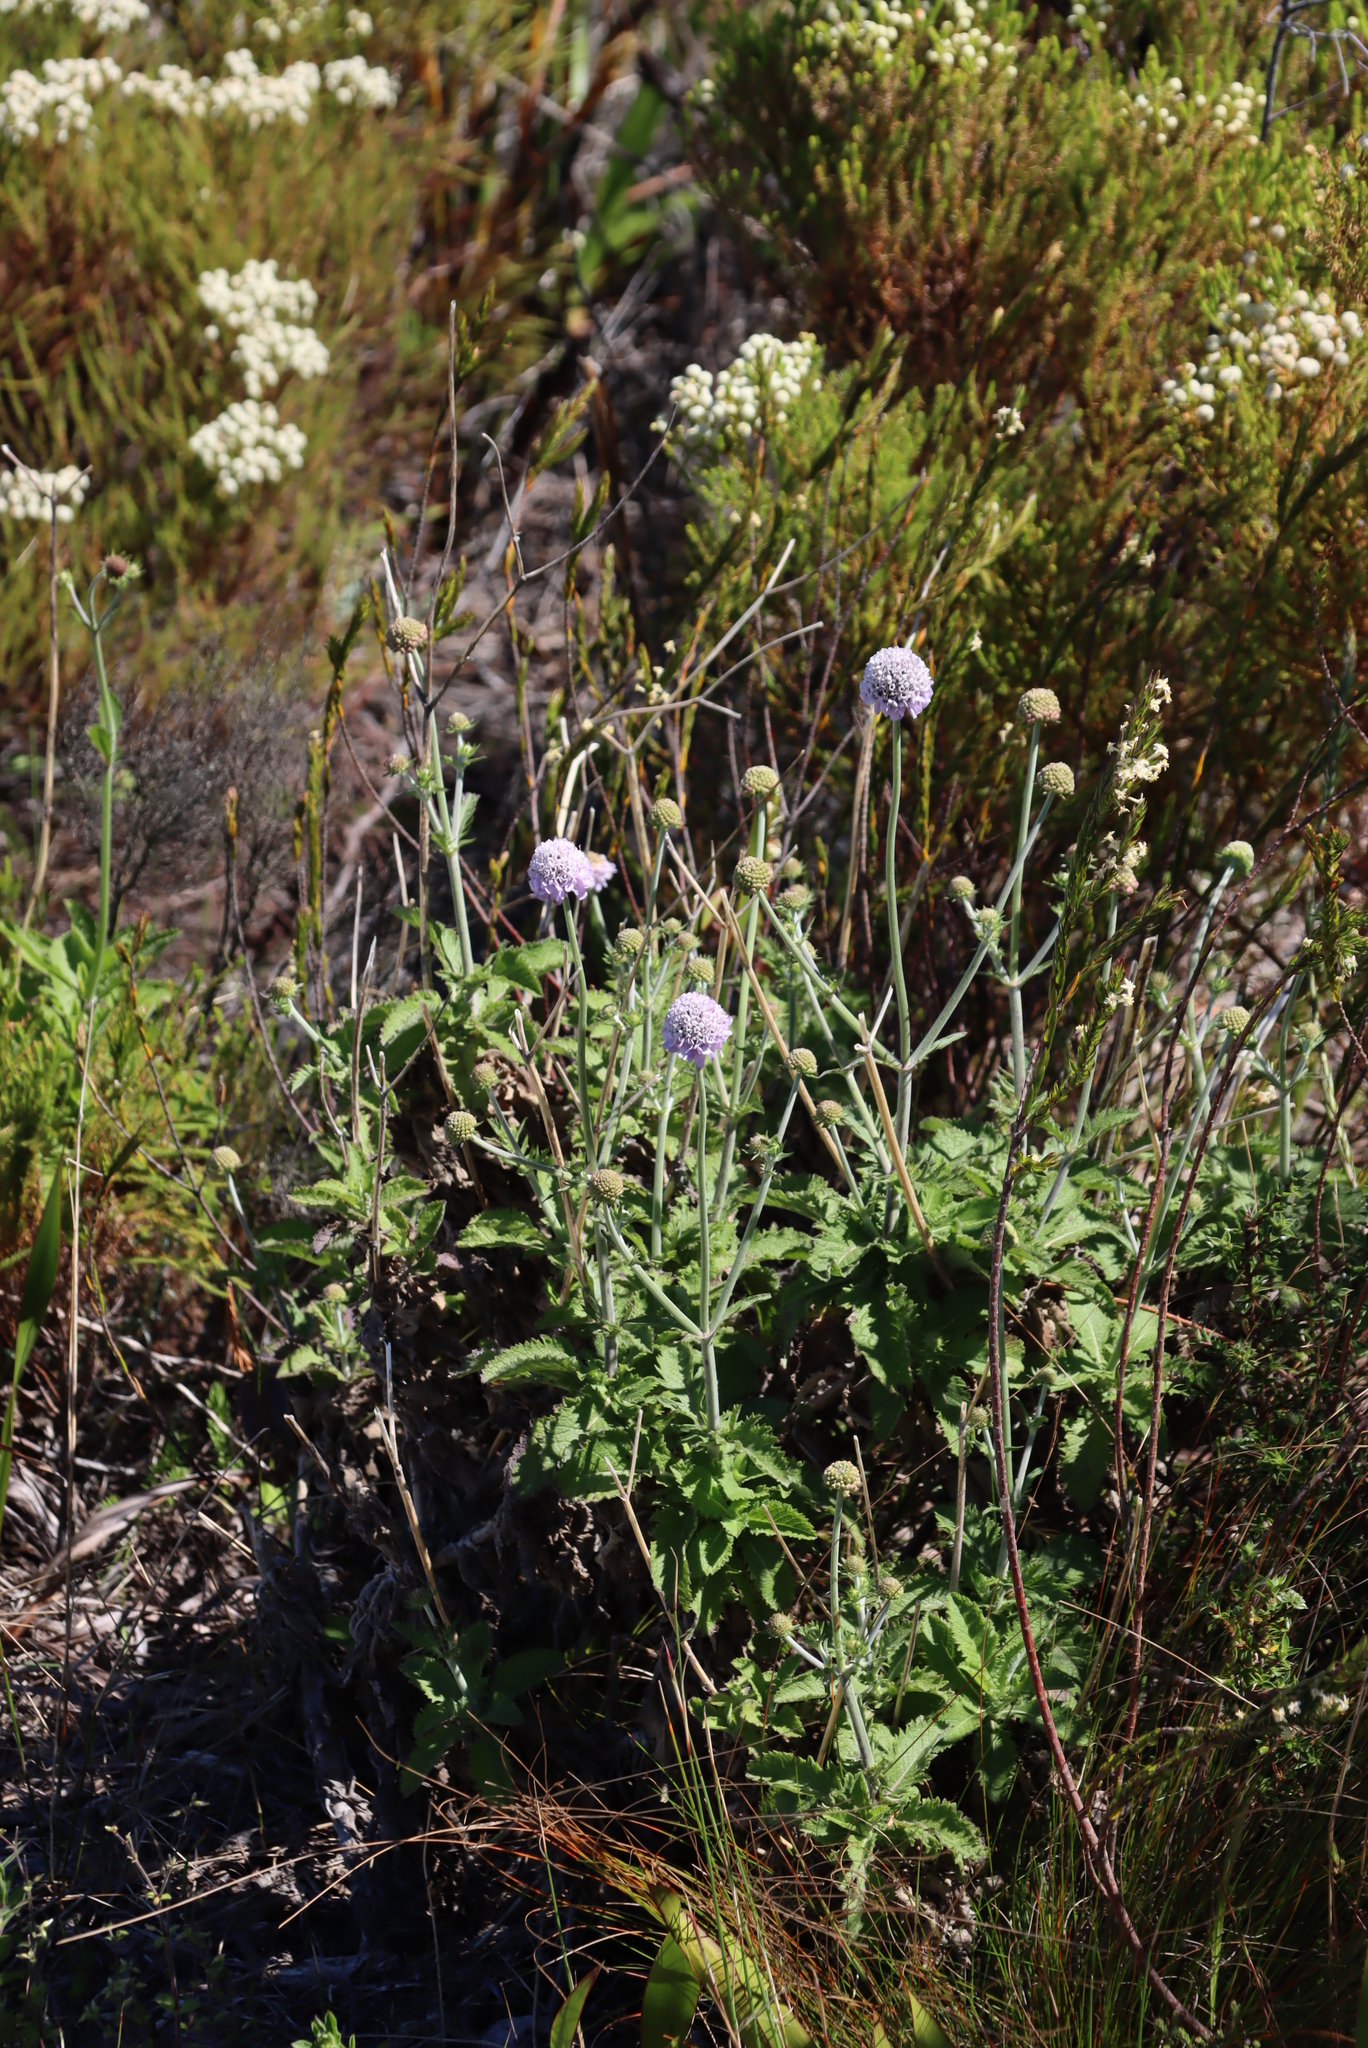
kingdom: Plantae
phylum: Tracheophyta
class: Magnoliopsida
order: Dipsacales
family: Caprifoliaceae
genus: Scabiosa
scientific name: Scabiosa africana
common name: Cape scabious
